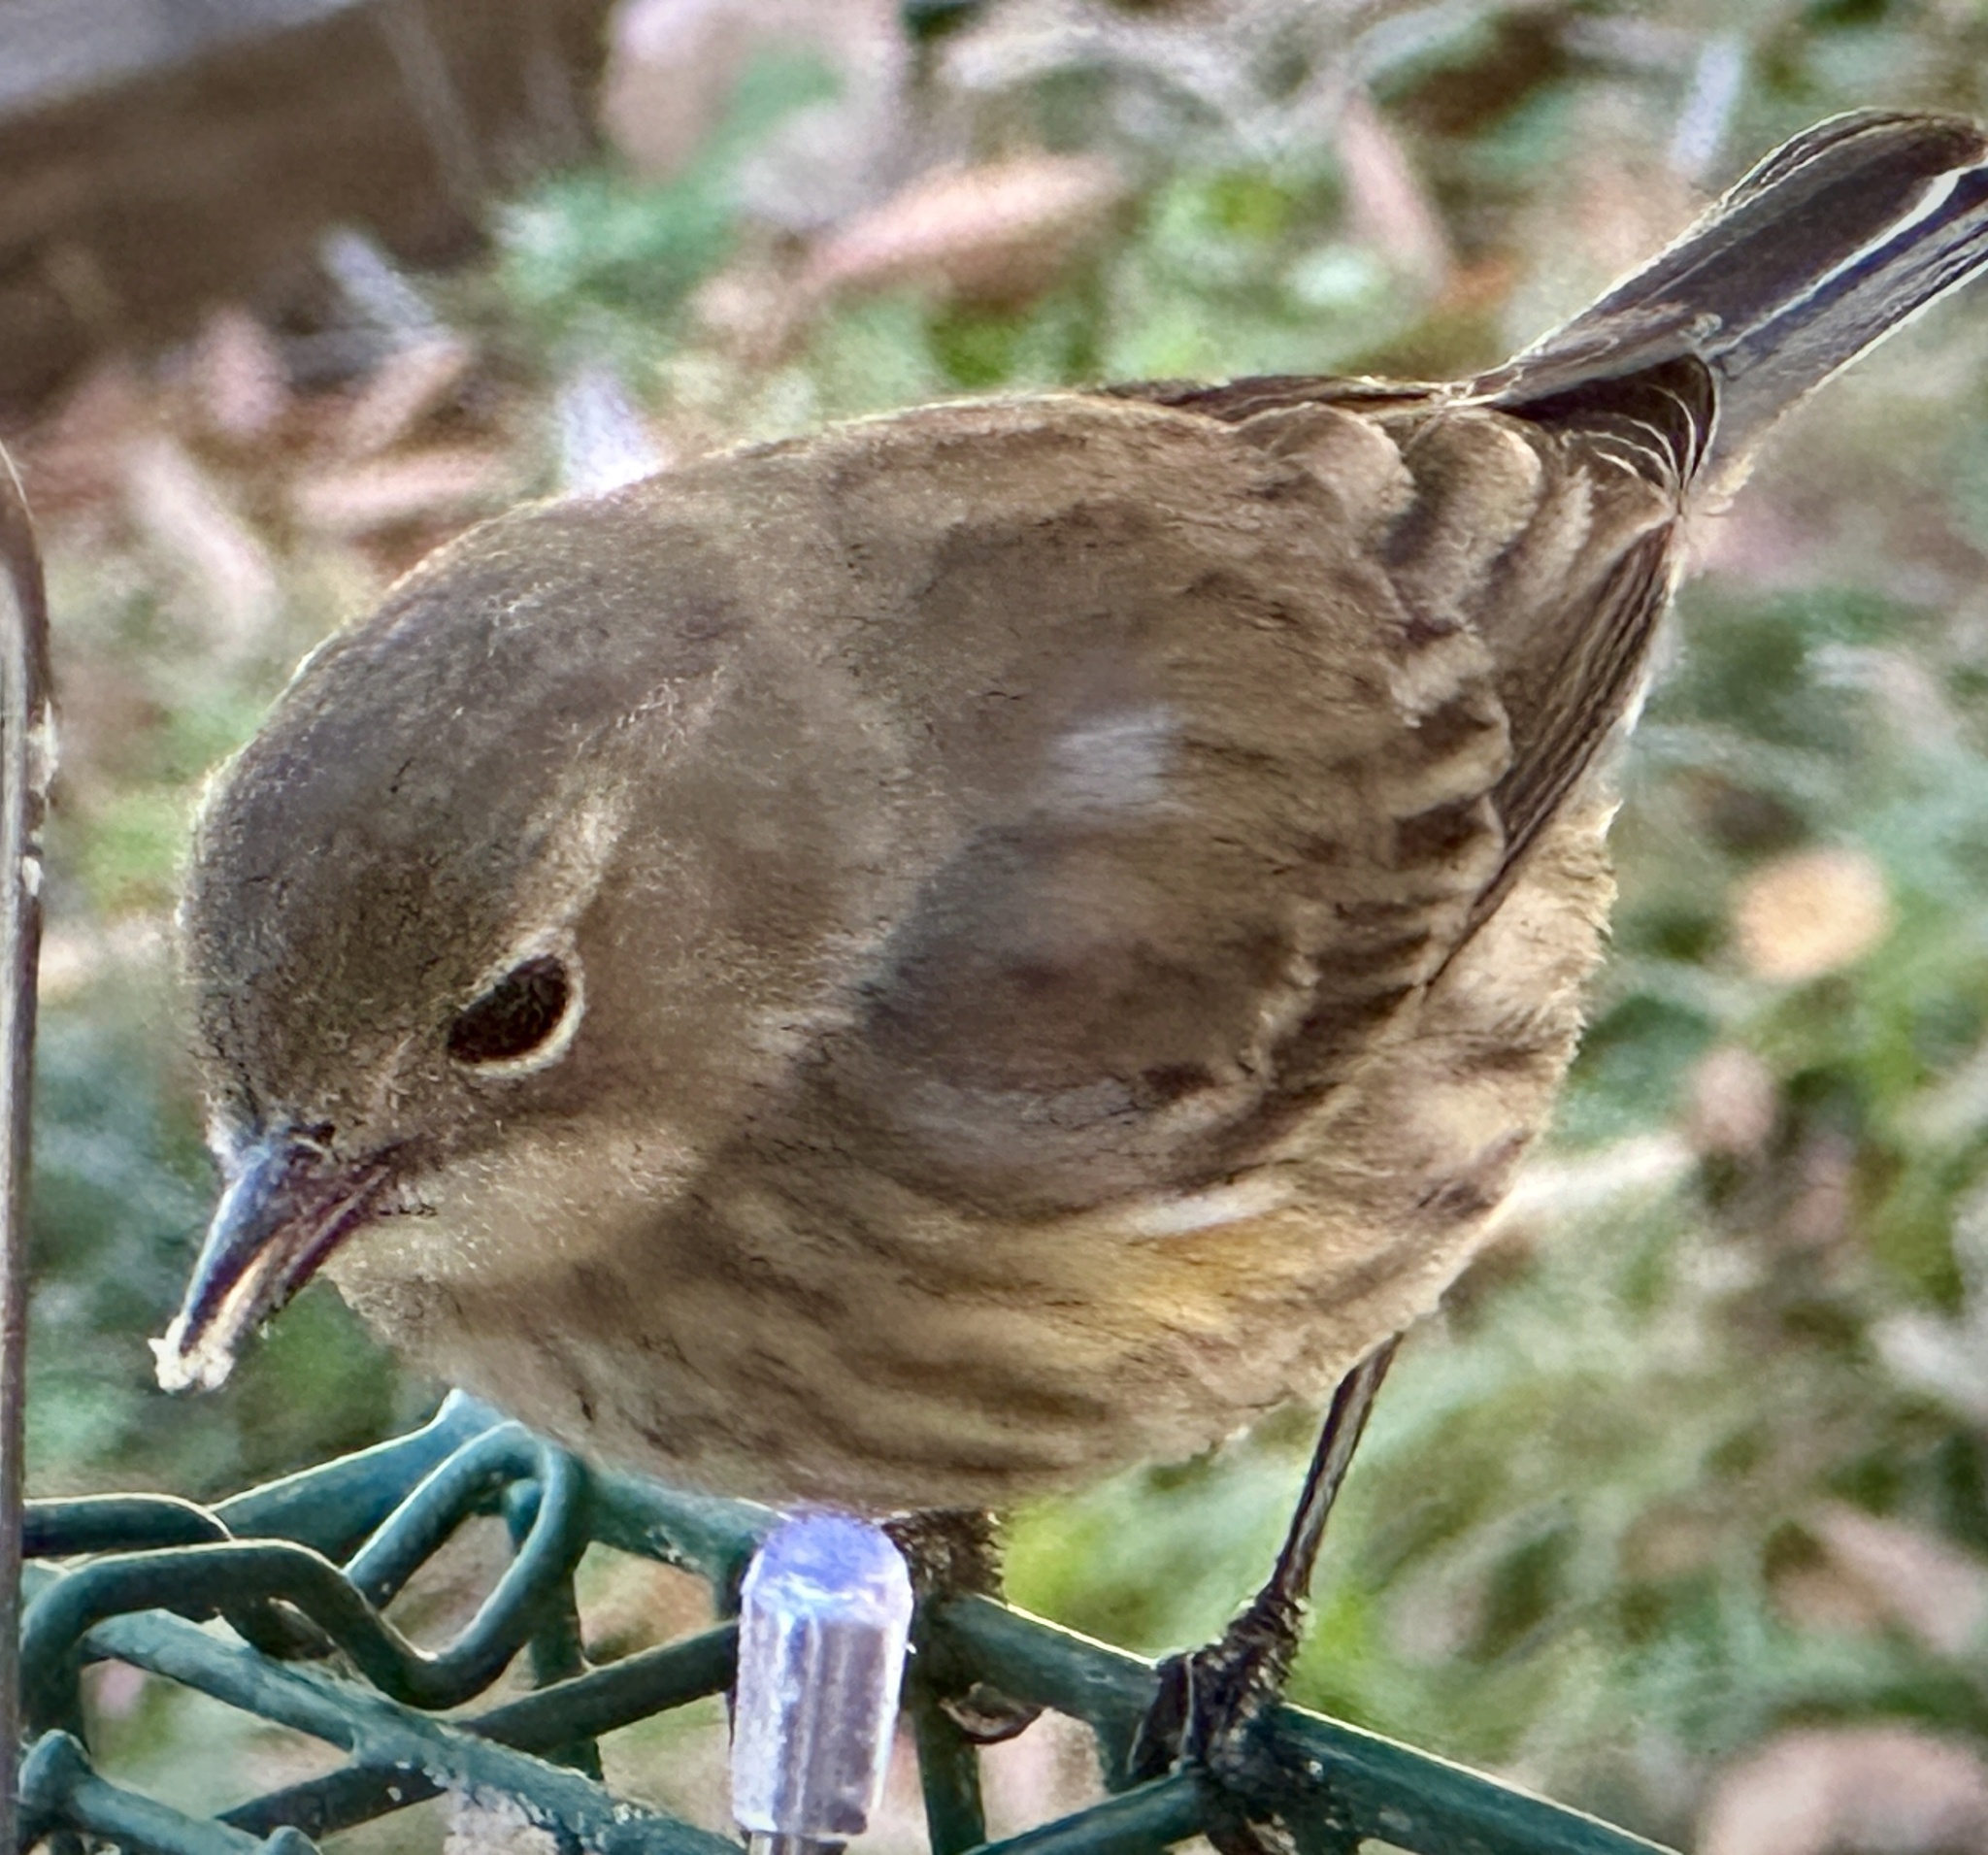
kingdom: Animalia
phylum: Chordata
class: Aves
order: Passeriformes
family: Parulidae
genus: Setophaga
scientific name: Setophaga coronata
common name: Myrtle warbler
